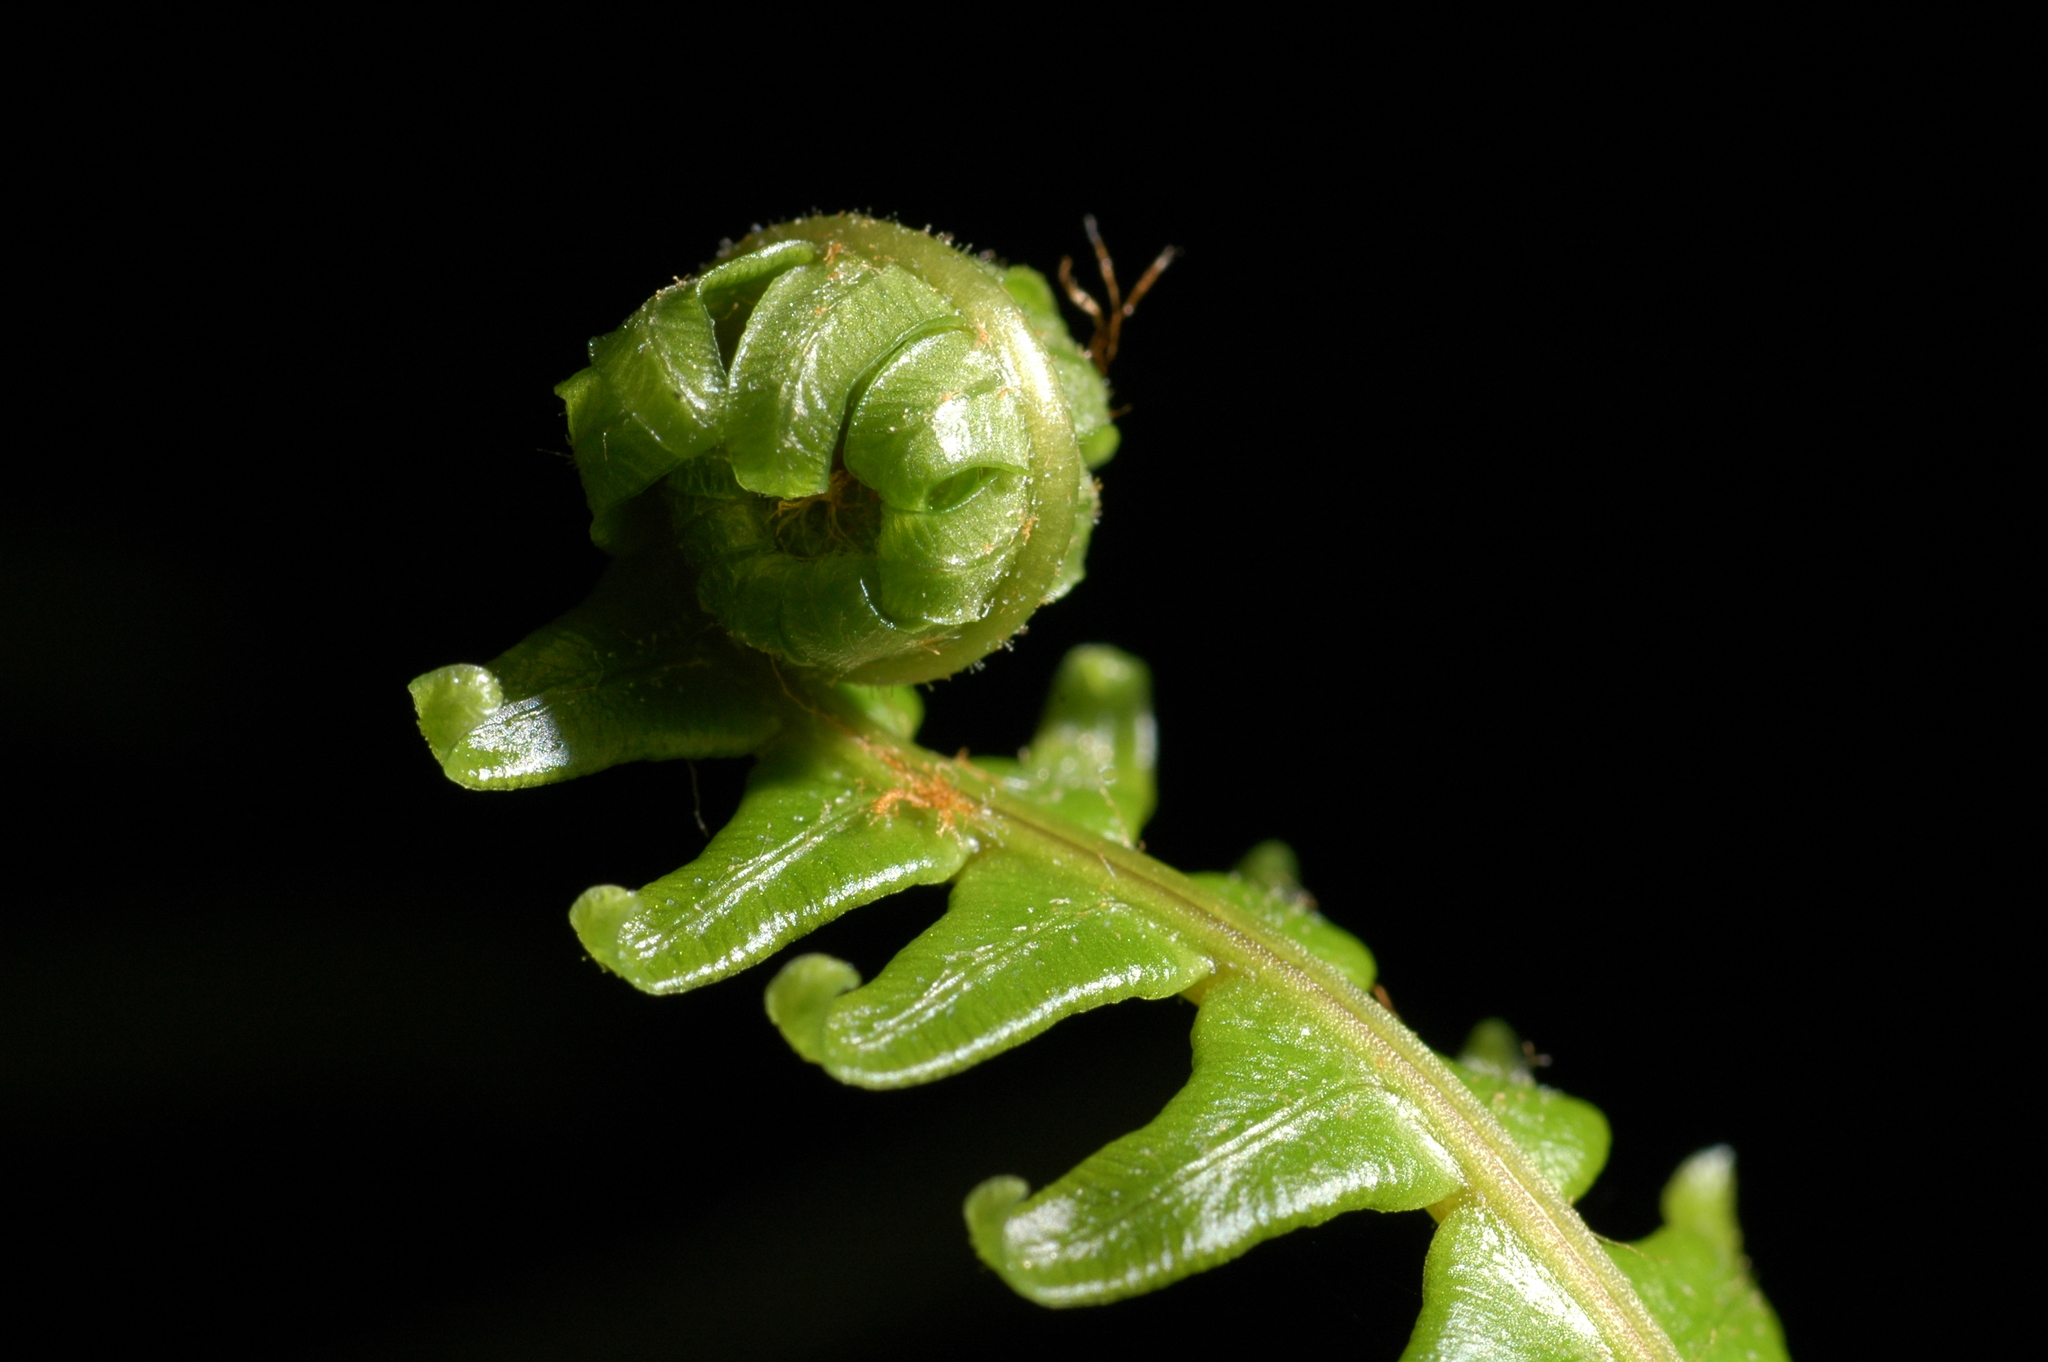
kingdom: Plantae
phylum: Tracheophyta
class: Polypodiopsida
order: Polypodiales
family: Blechnaceae
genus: Struthiopteris
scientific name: Struthiopteris spicant
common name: Deer fern
